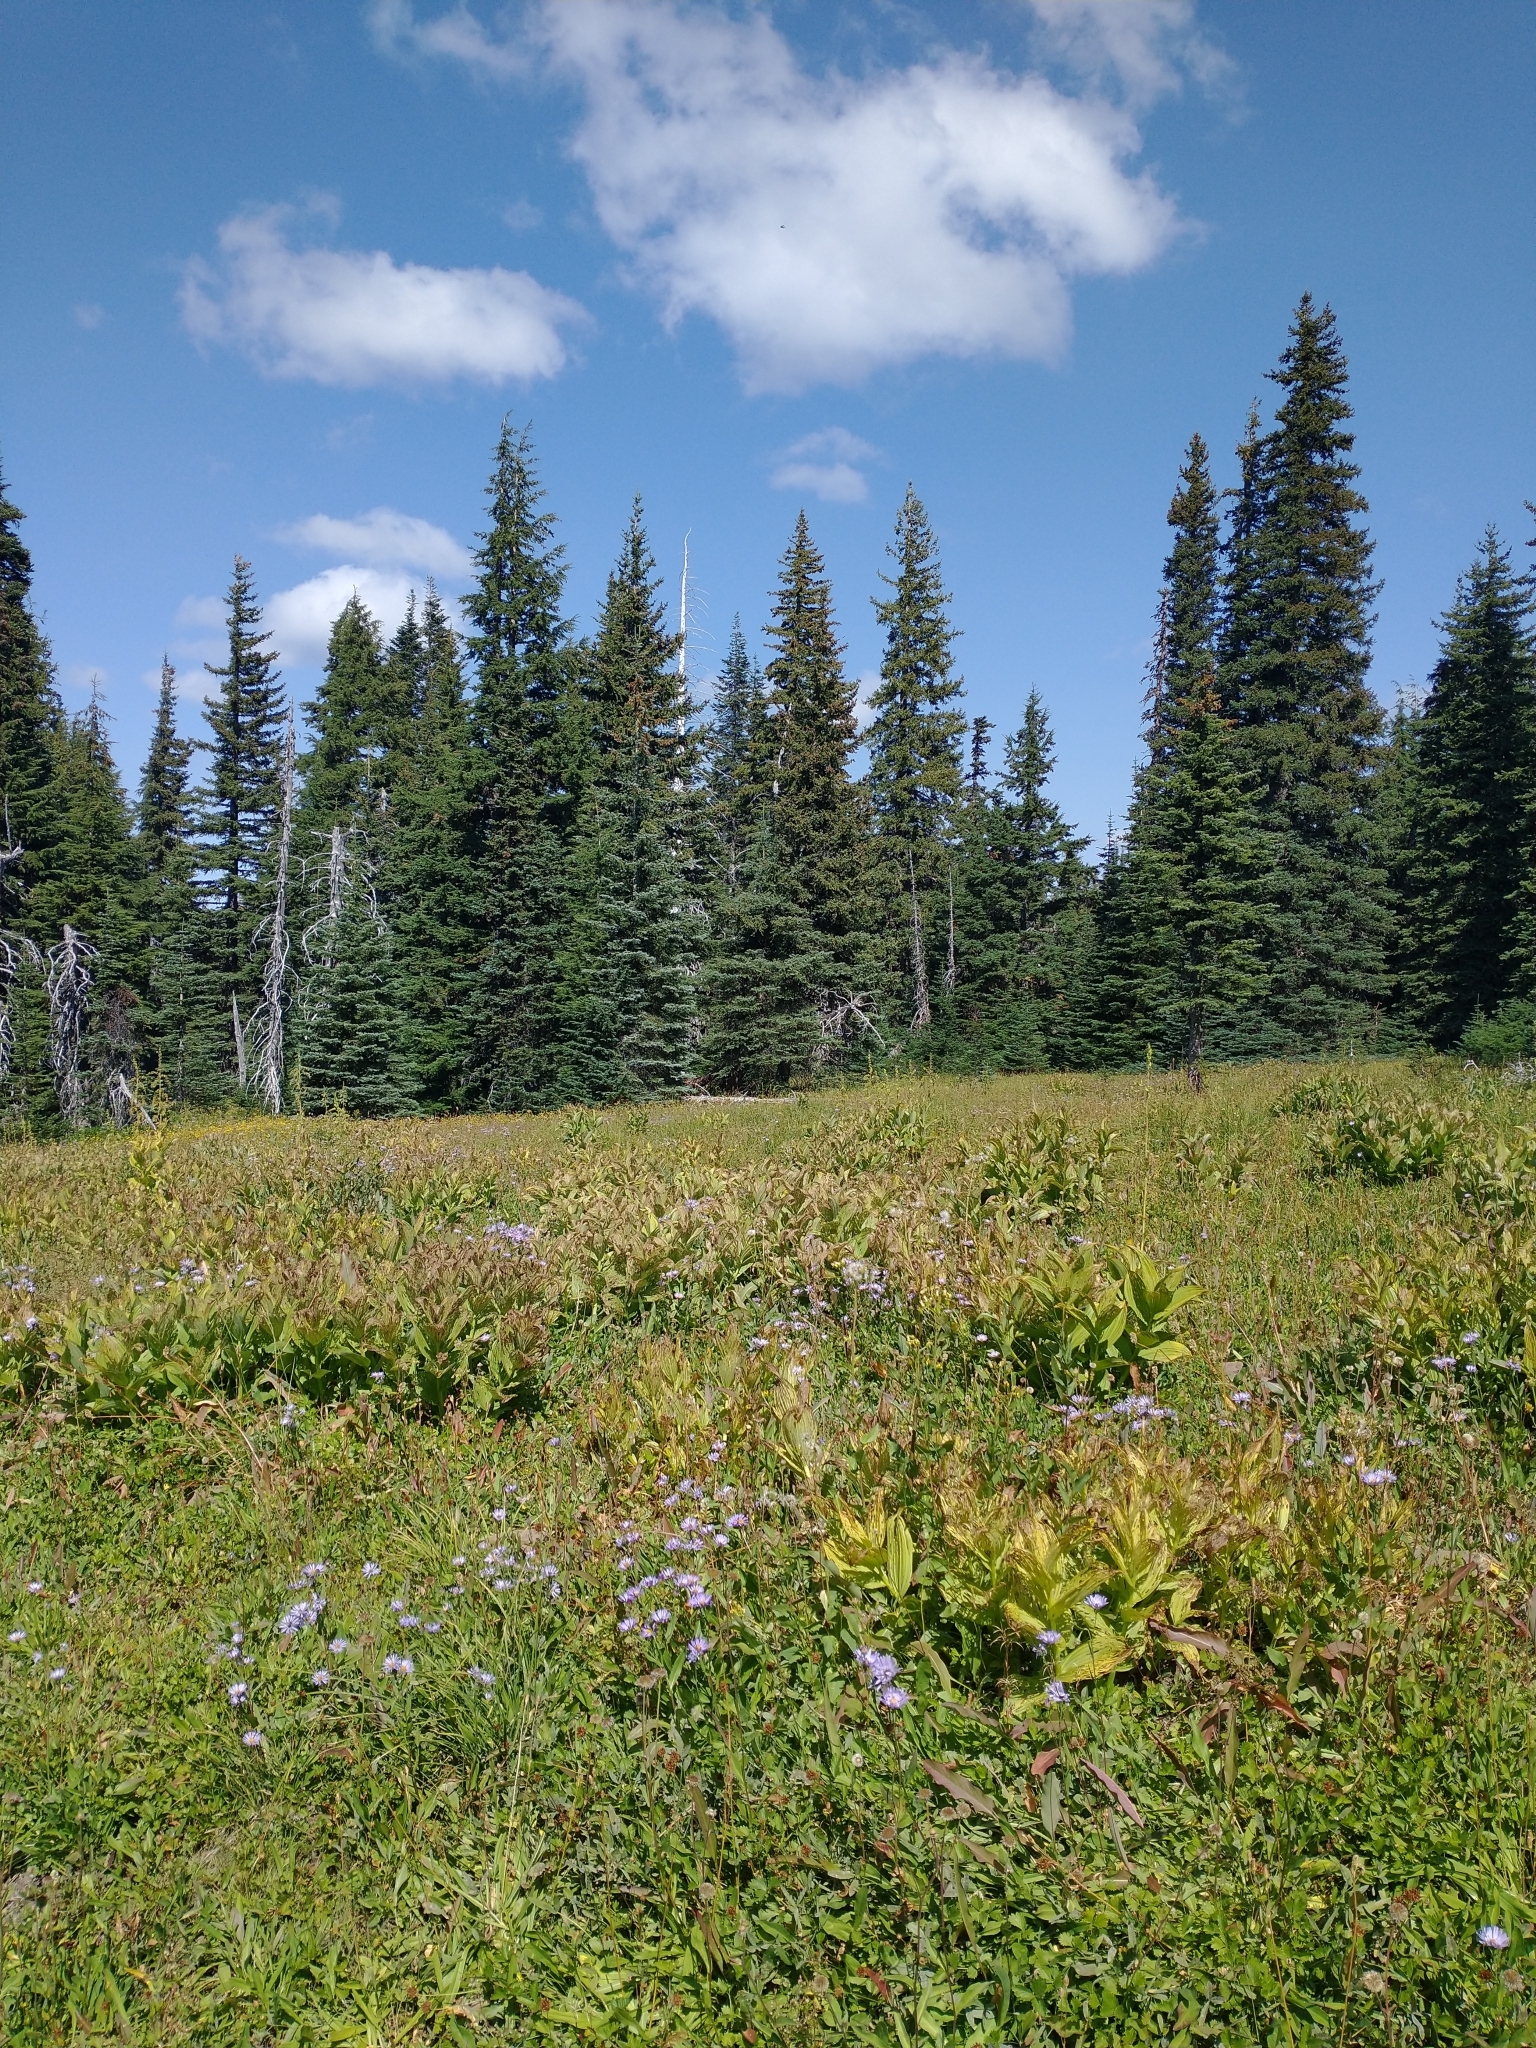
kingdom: Plantae
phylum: Tracheophyta
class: Liliopsida
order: Liliales
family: Melanthiaceae
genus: Veratrum
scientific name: Veratrum viride
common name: American false hellebore
